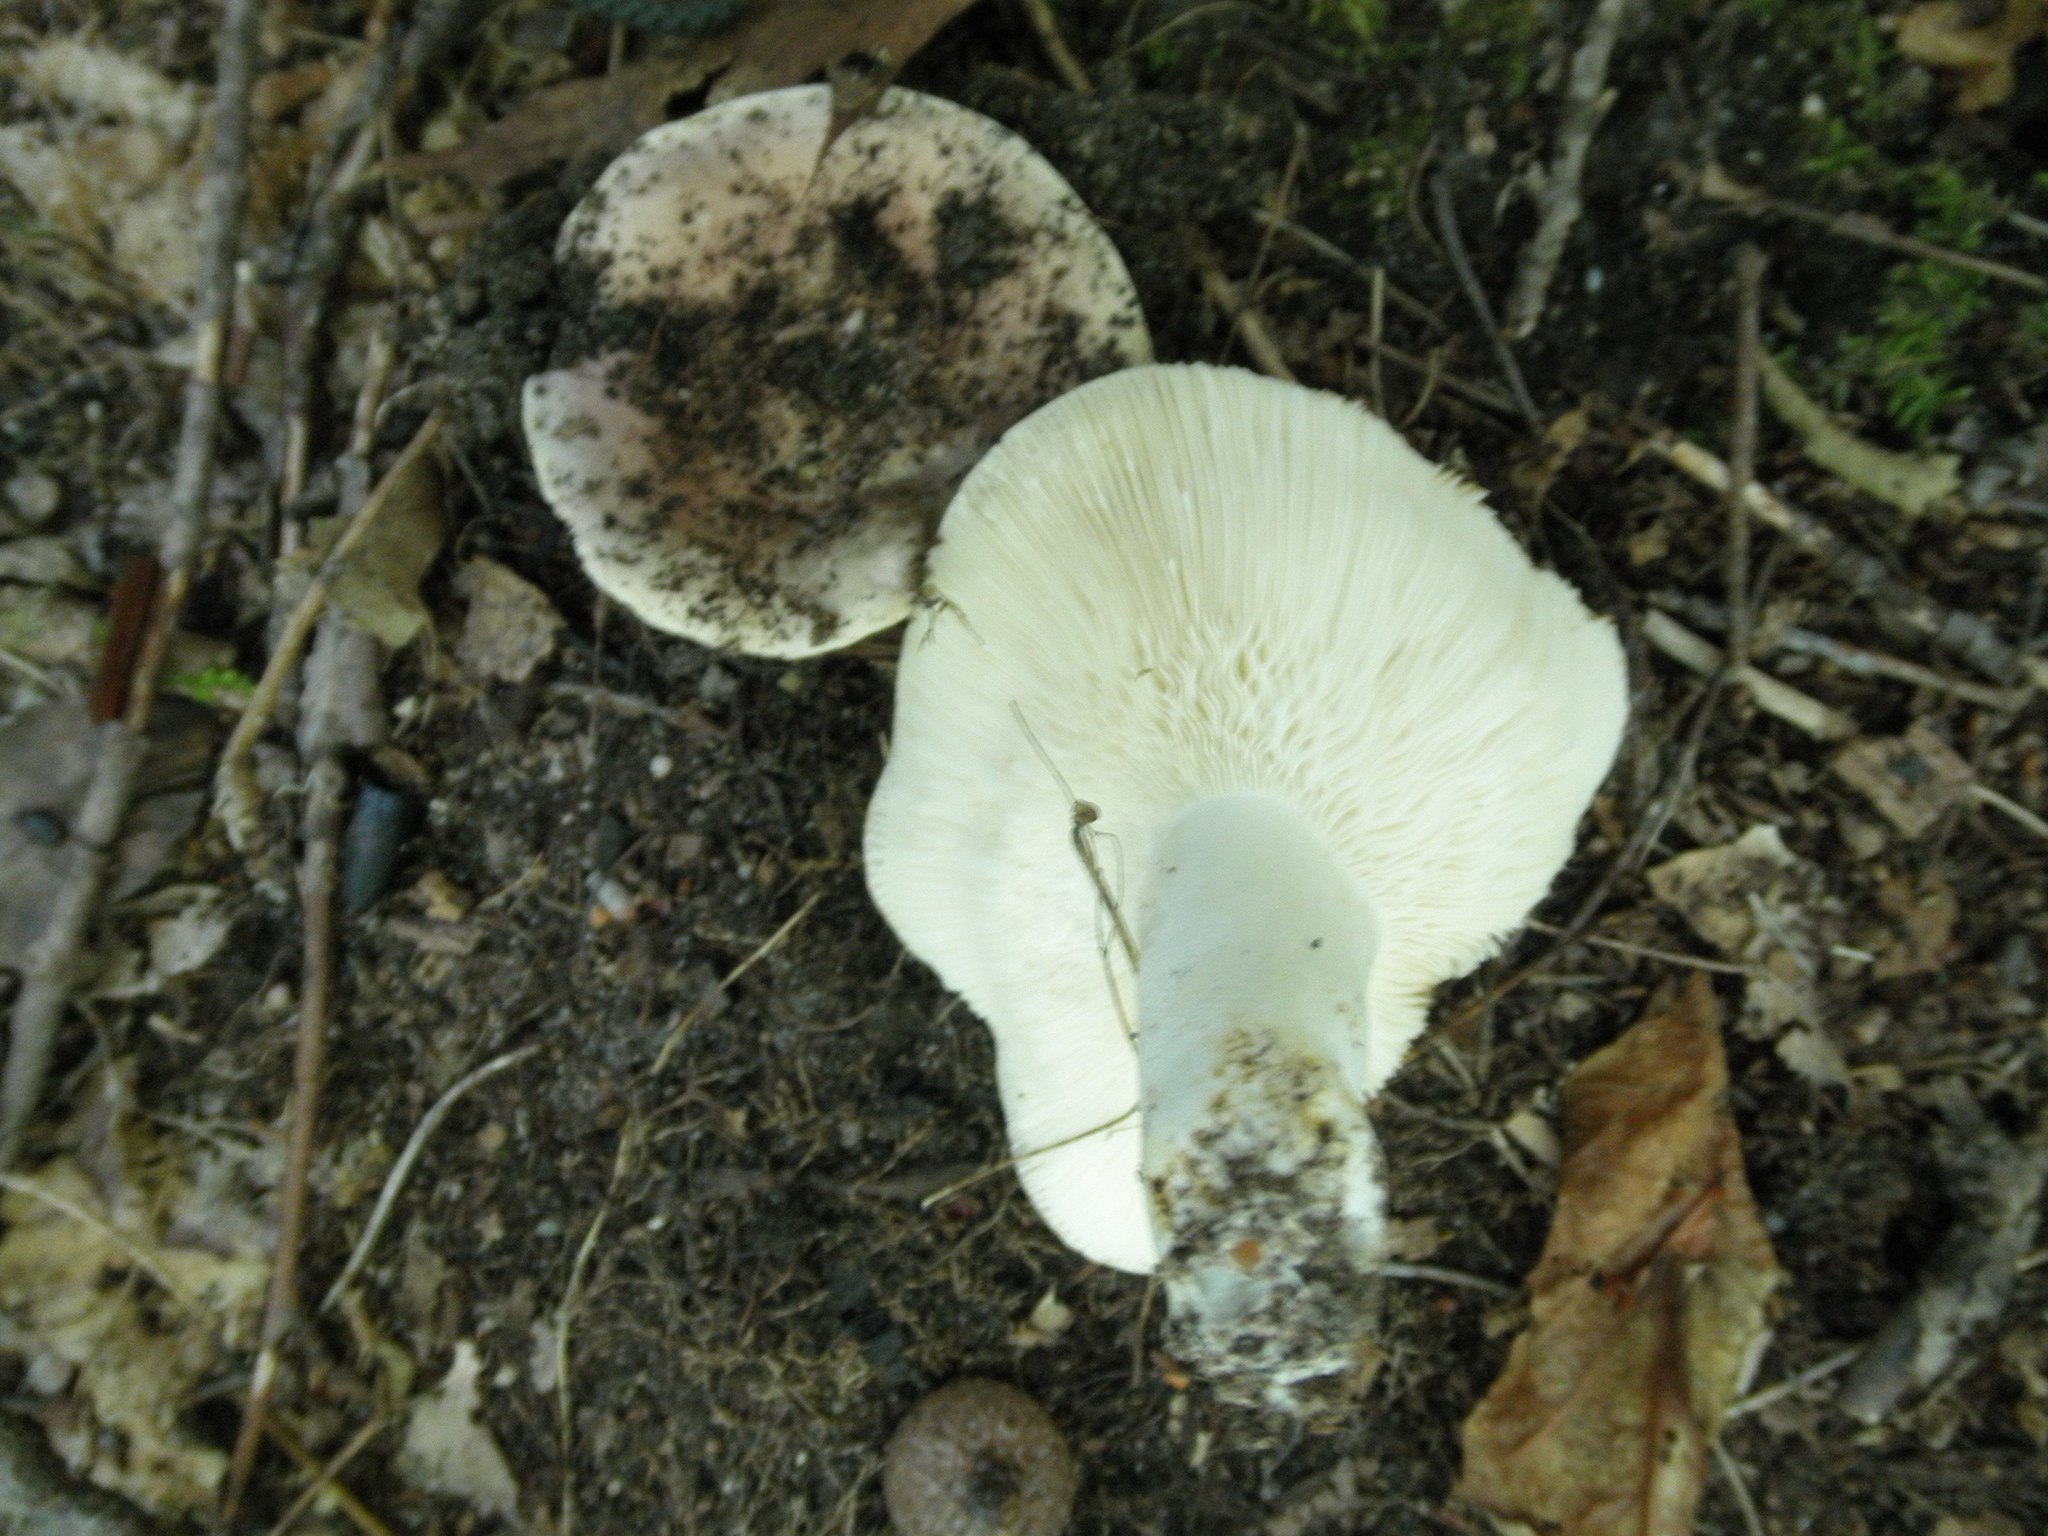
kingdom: Fungi
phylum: Basidiomycota
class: Agaricomycetes
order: Russulales
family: Russulaceae
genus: Russula
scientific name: Russula
